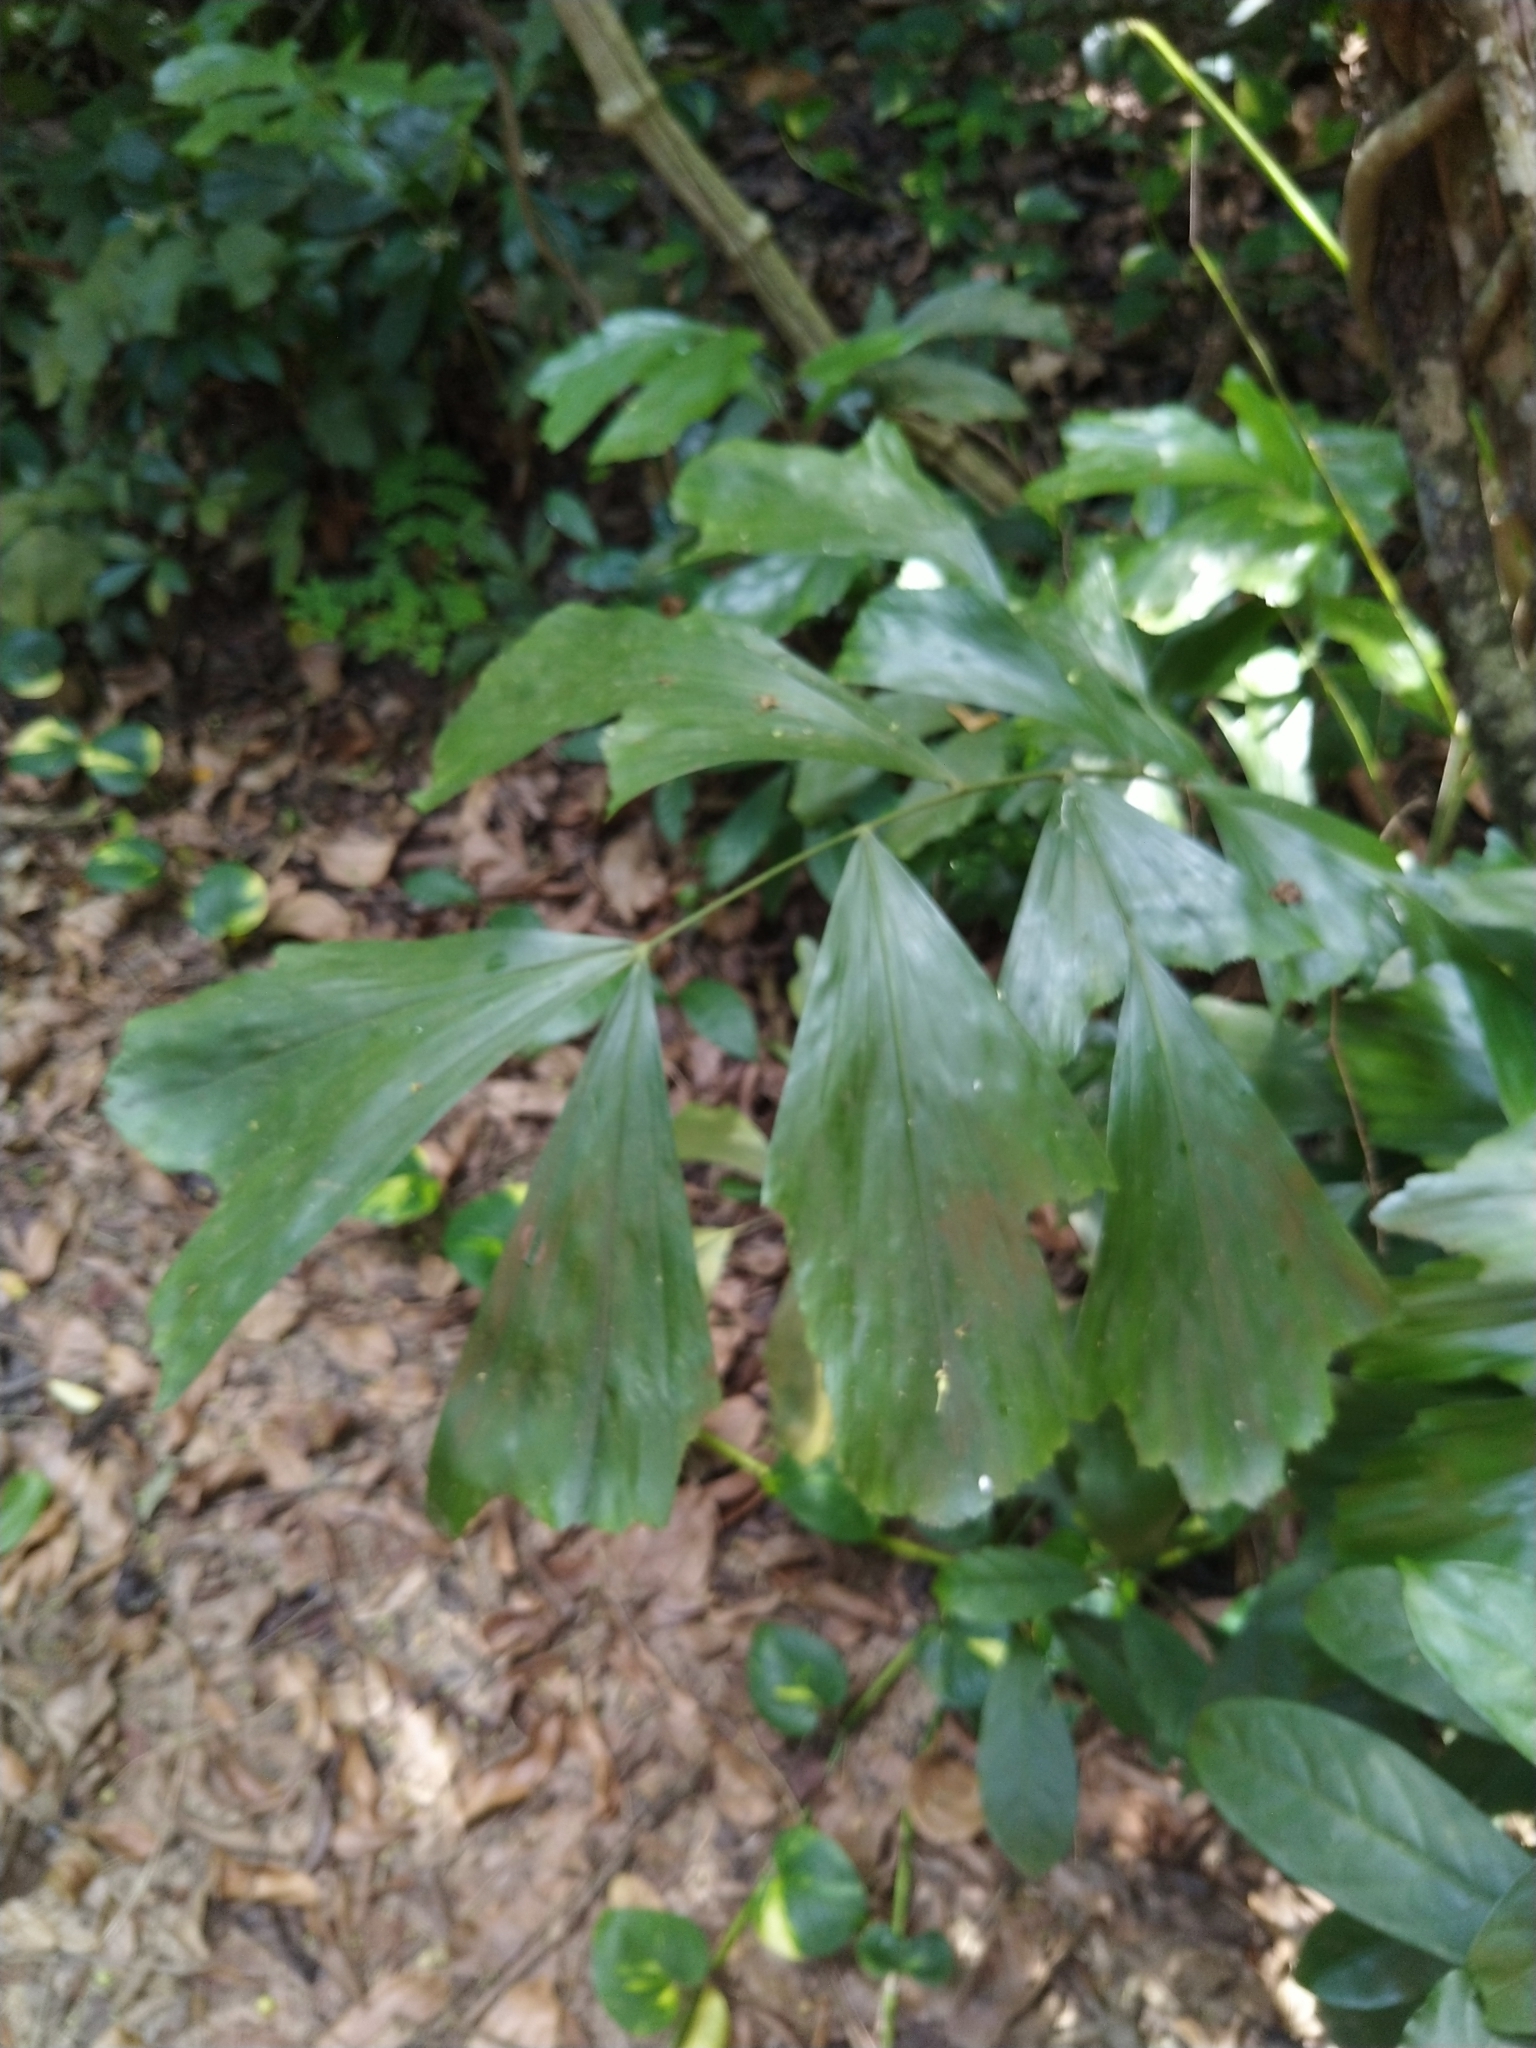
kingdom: Plantae
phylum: Tracheophyta
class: Liliopsida
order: Arecales
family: Arecaceae
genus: Caryota
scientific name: Caryota urens
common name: Jaggery palm
